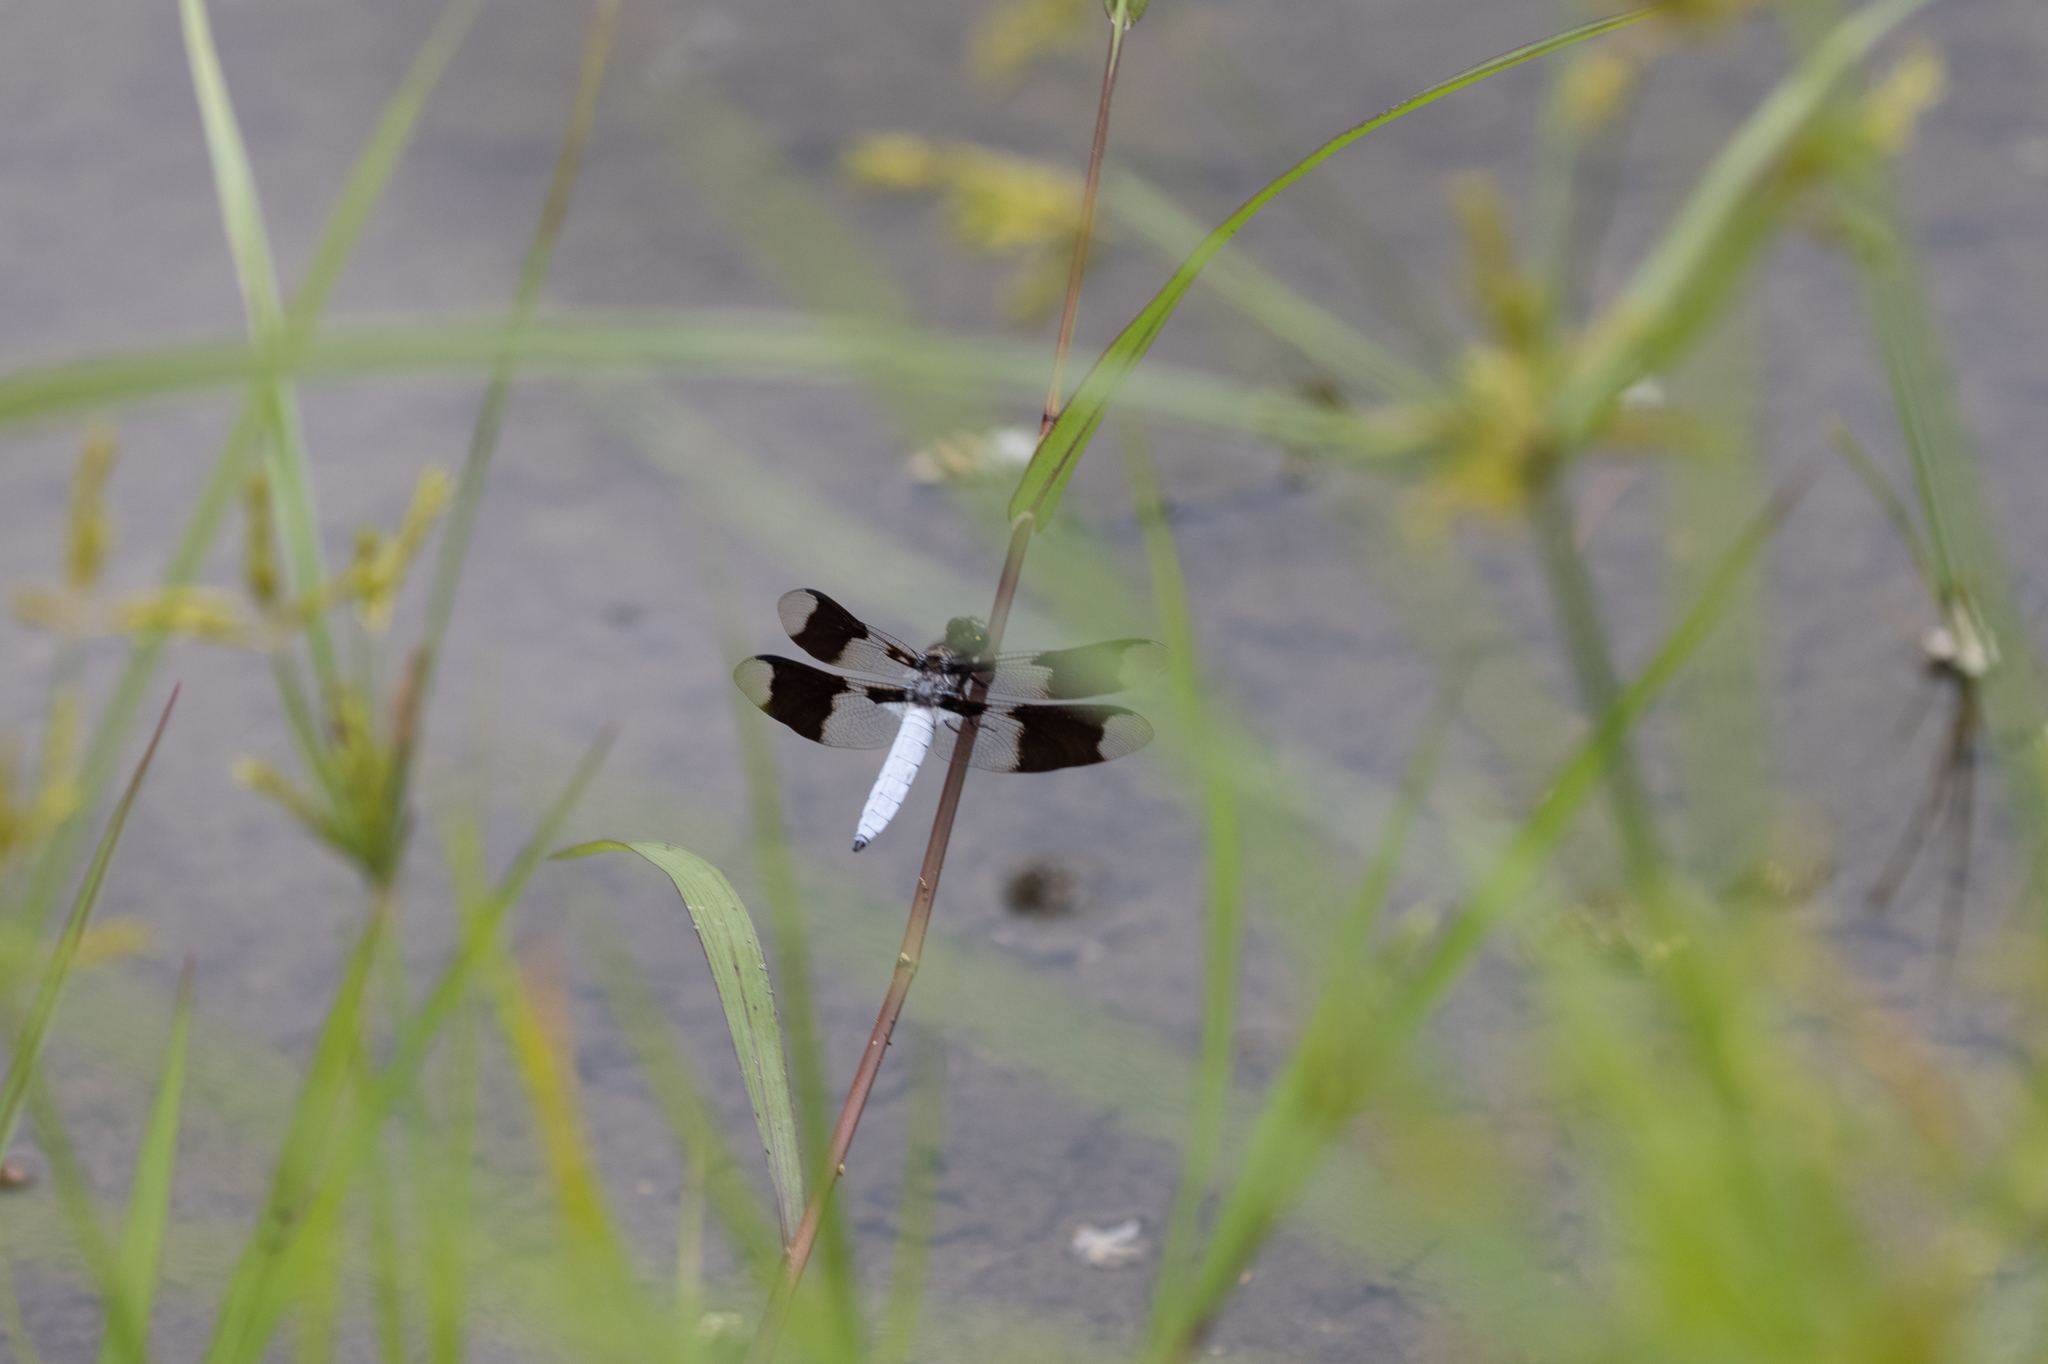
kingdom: Animalia
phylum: Arthropoda
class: Insecta
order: Odonata
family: Libellulidae
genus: Plathemis
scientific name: Plathemis lydia
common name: Common whitetail
